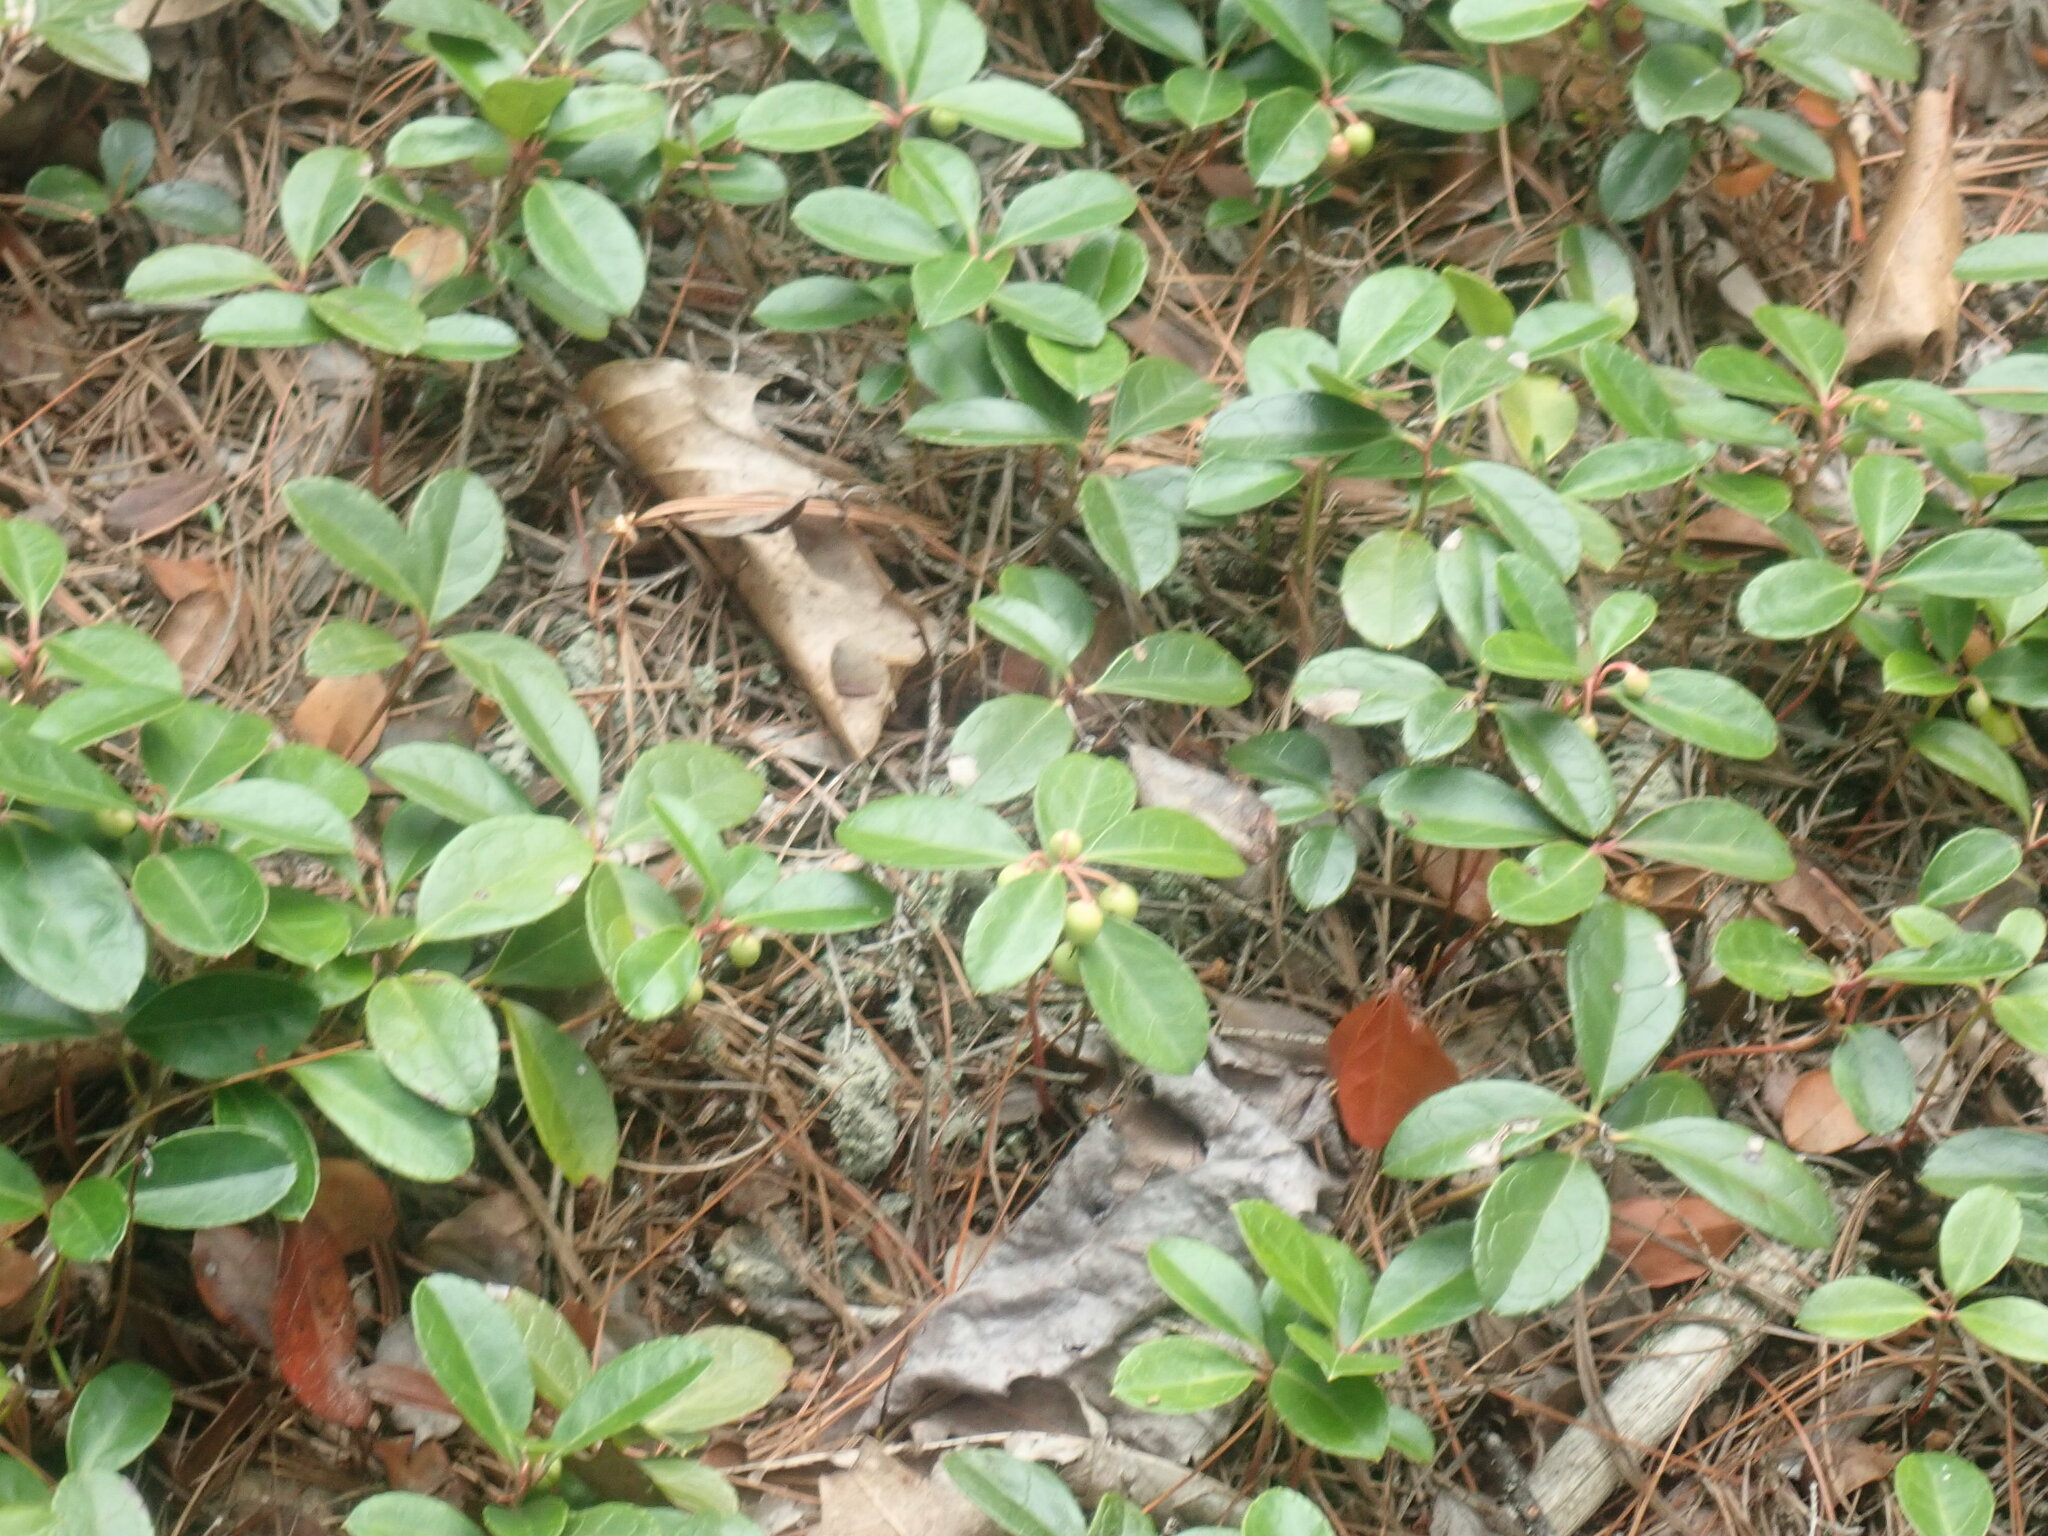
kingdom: Plantae
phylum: Tracheophyta
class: Magnoliopsida
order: Ericales
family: Ericaceae
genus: Gaultheria
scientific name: Gaultheria procumbens
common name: Checkerberry
